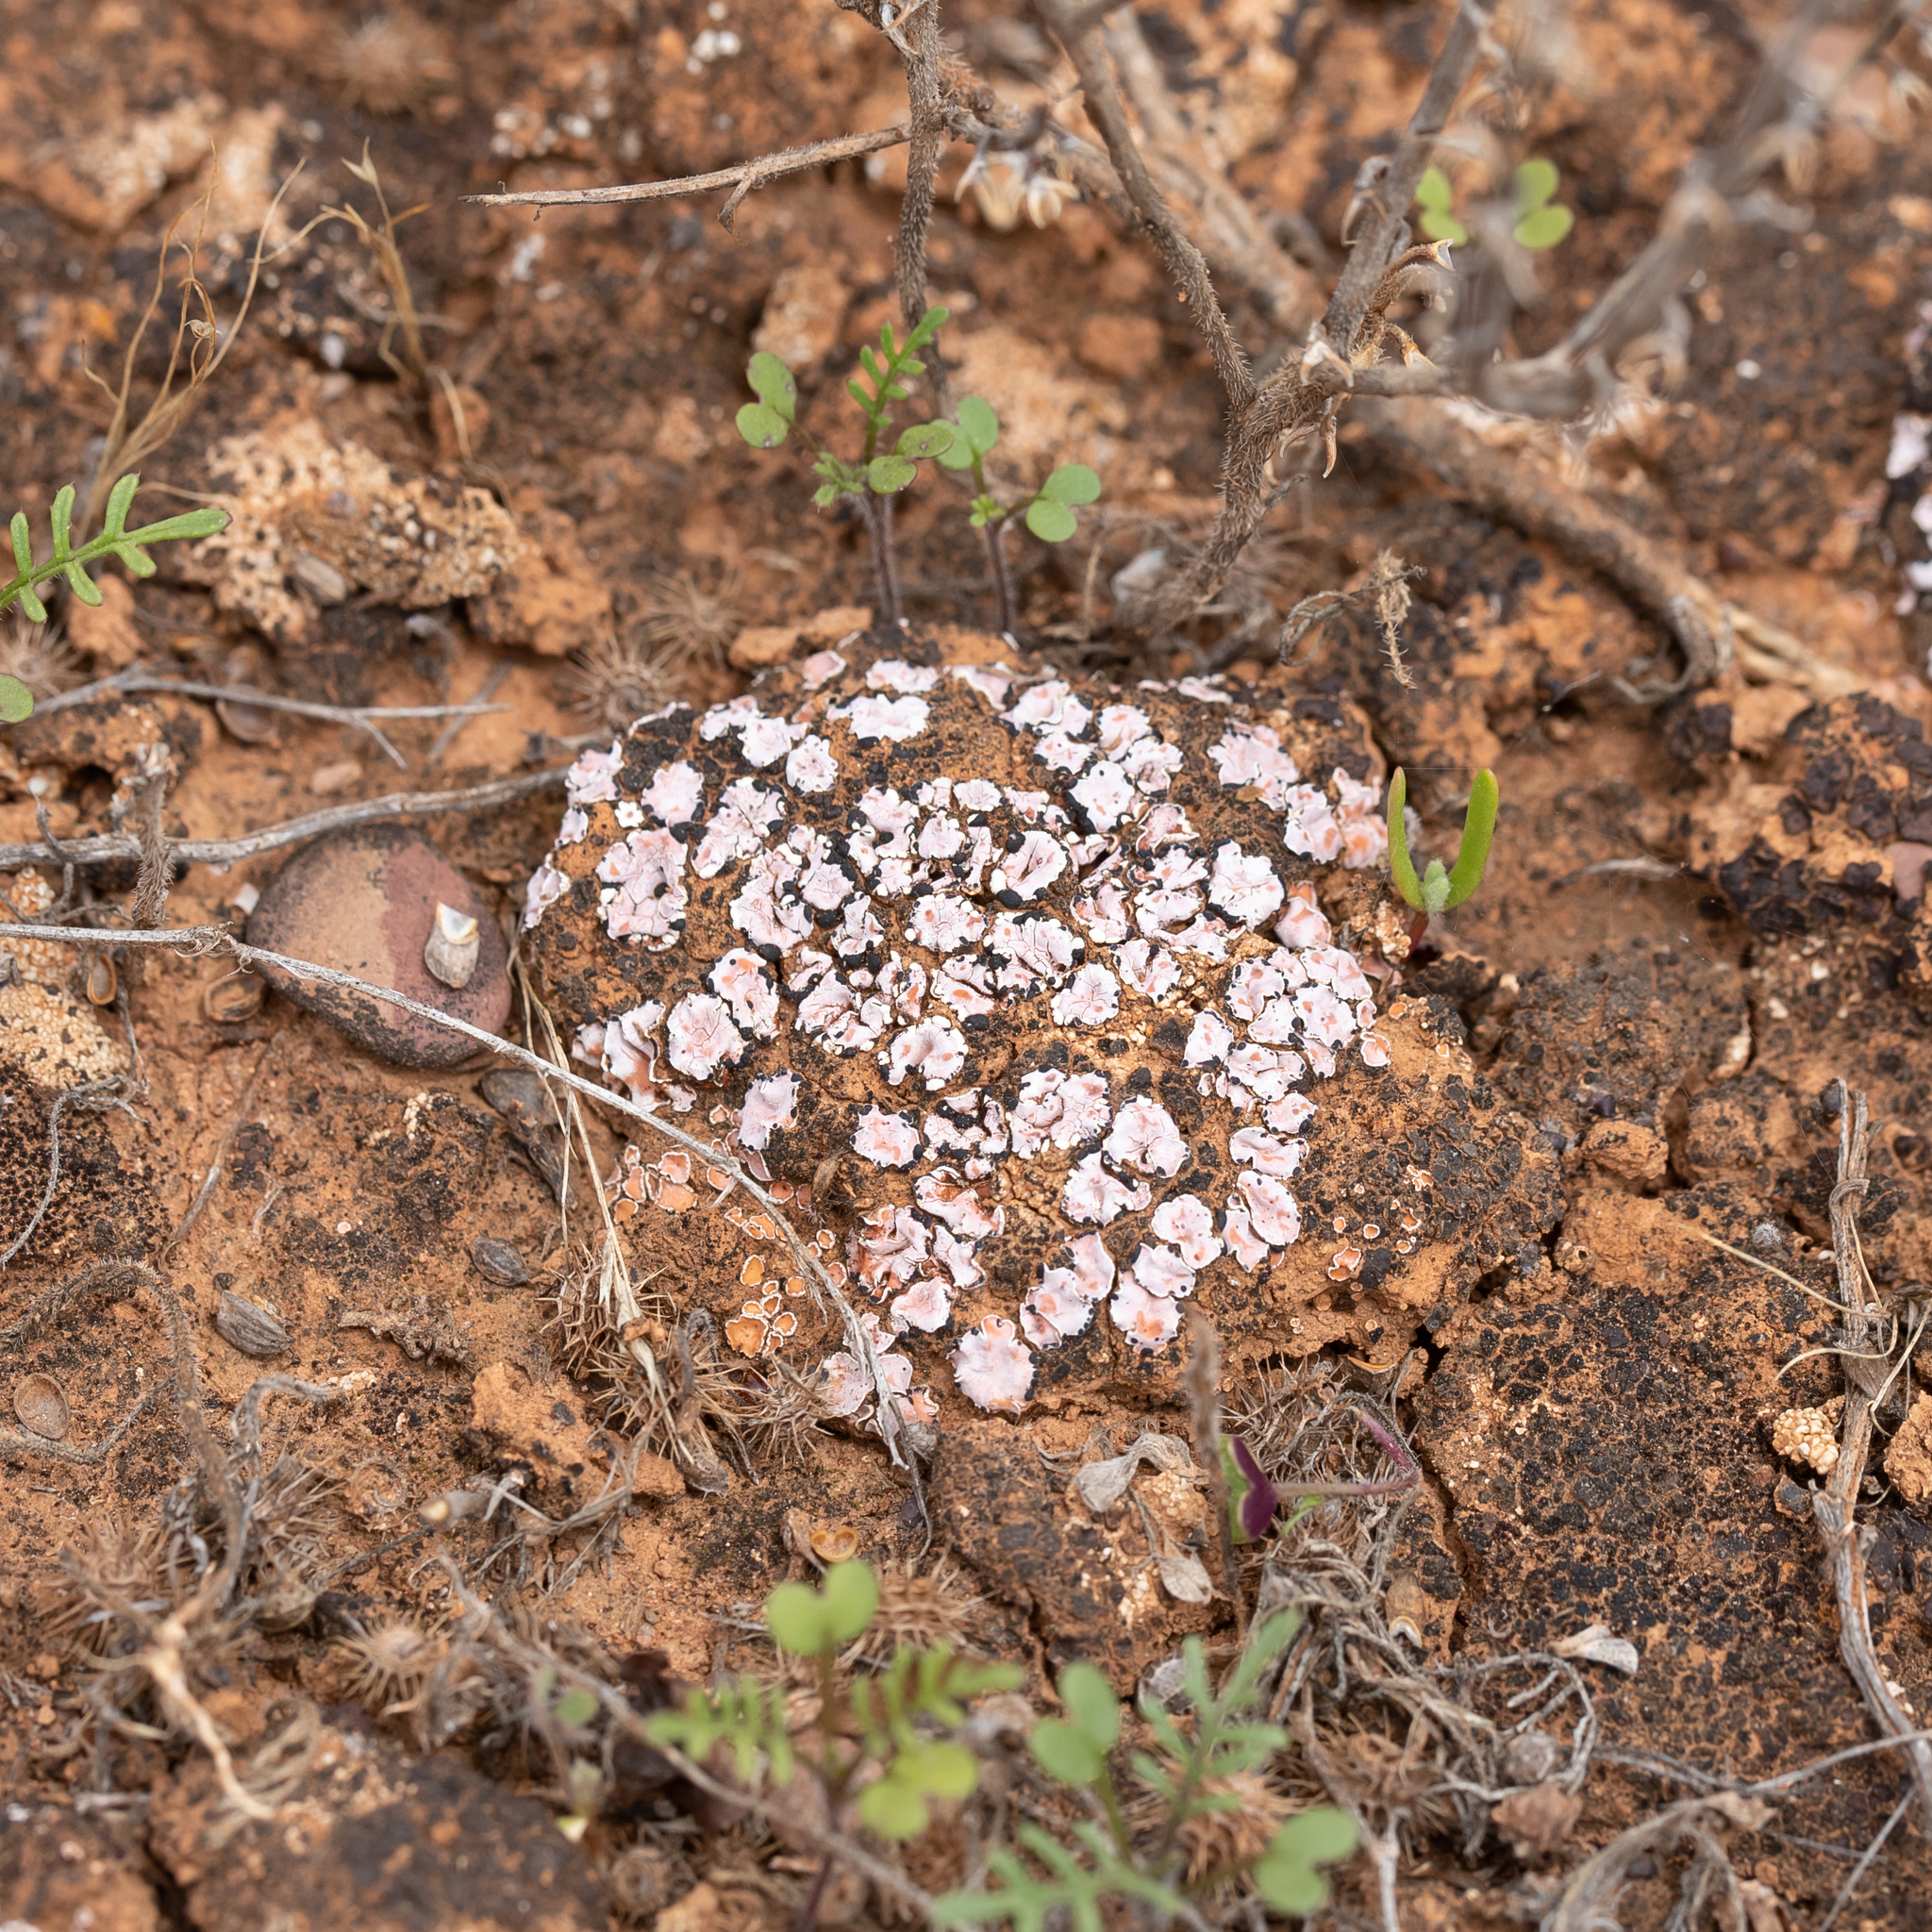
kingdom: Fungi
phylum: Ascomycota
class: Lecanoromycetes
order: Lecanorales
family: Psoraceae
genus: Psora
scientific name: Psora decipiens
